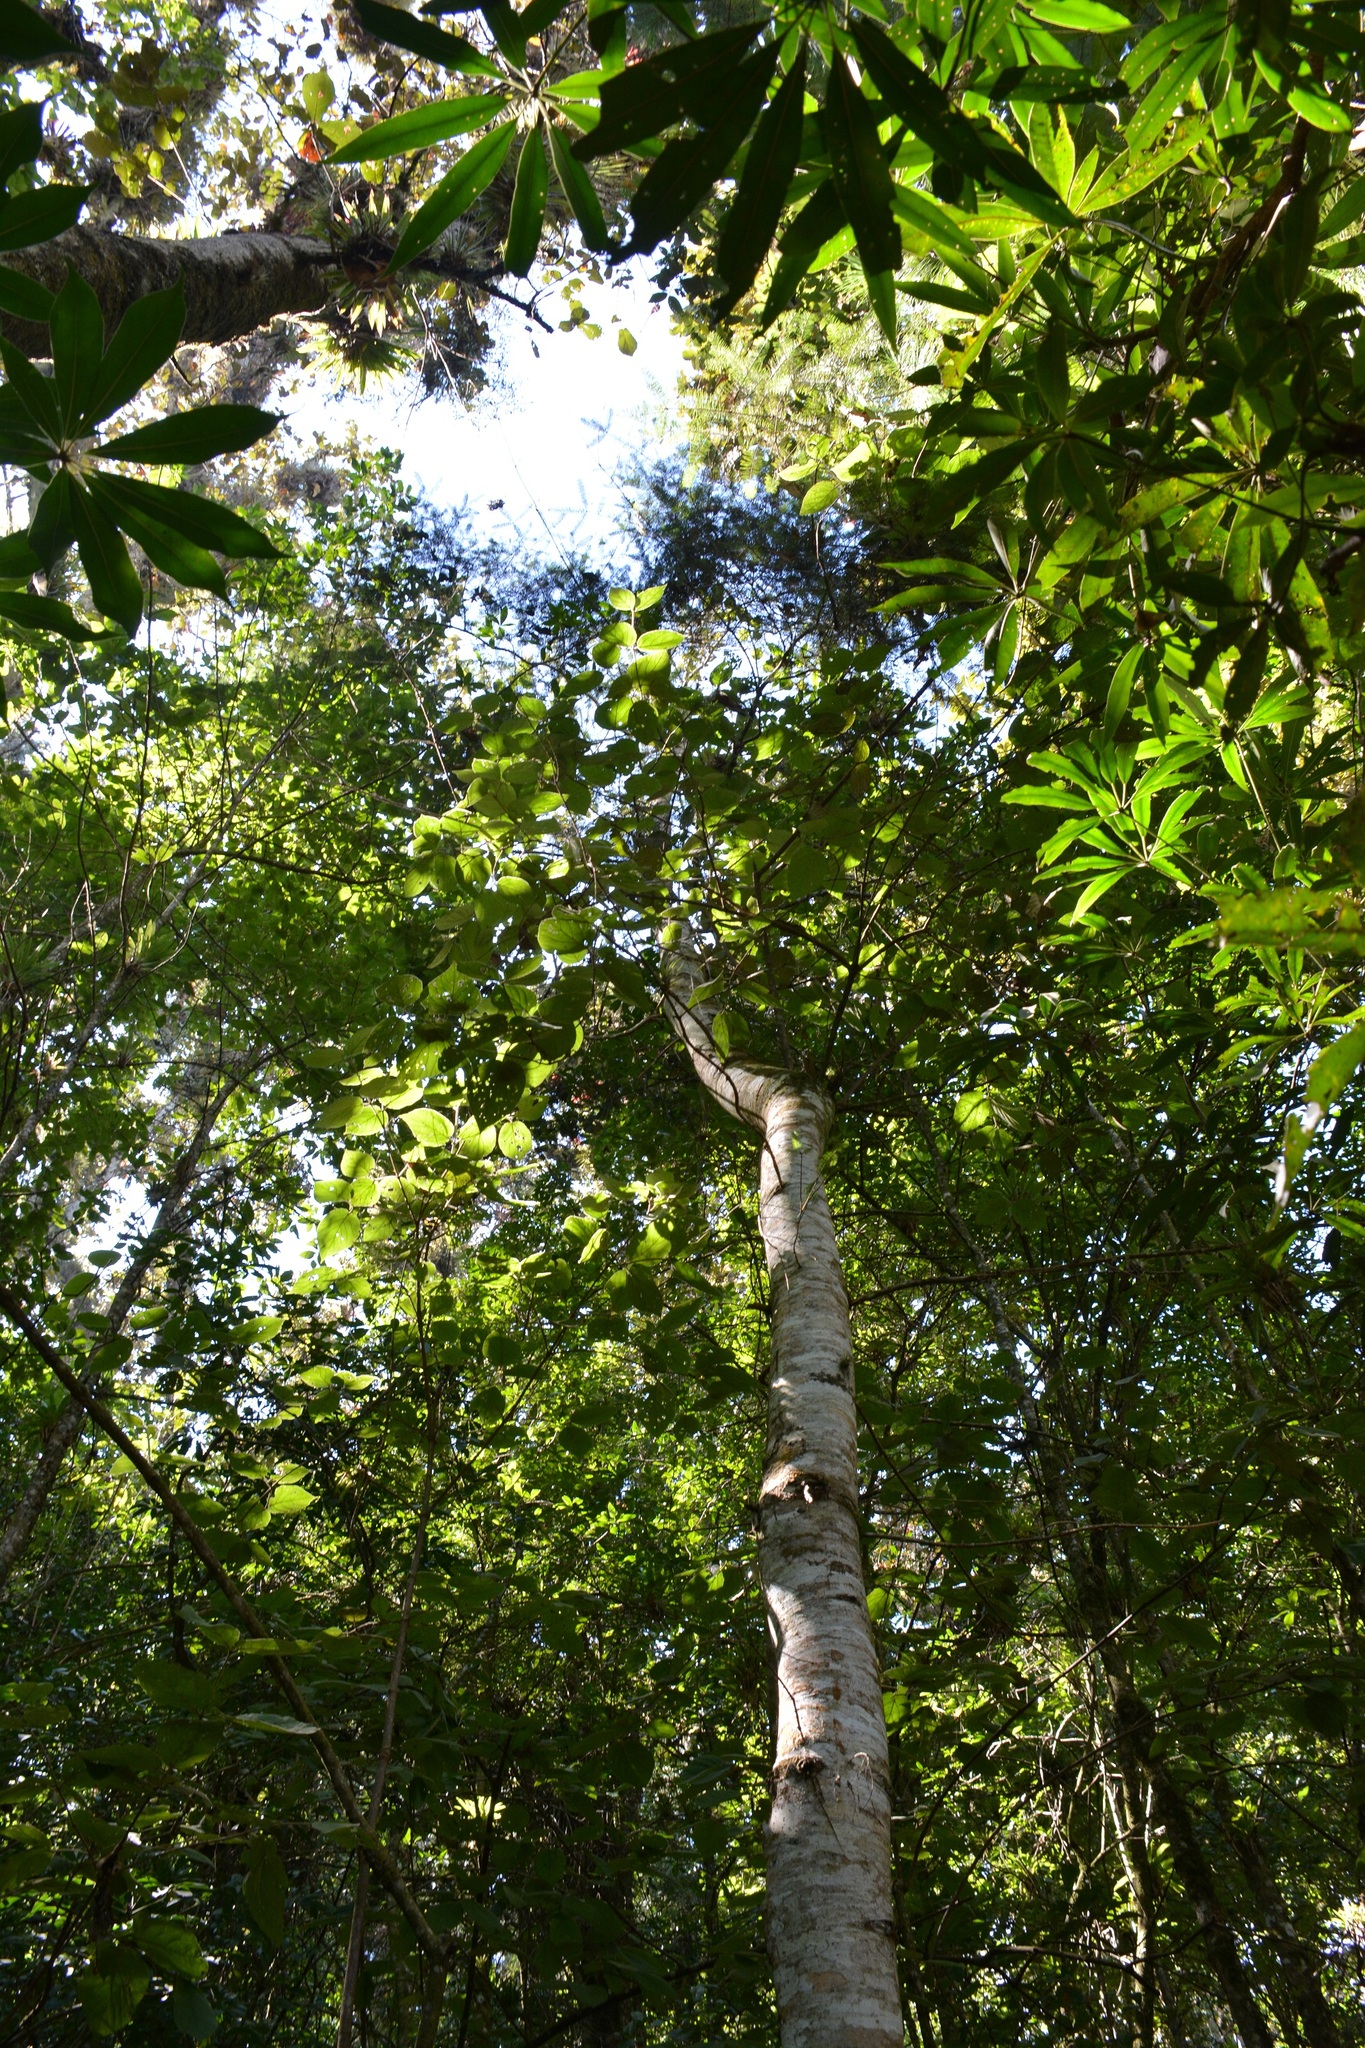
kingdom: Plantae
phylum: Tracheophyta
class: Pinopsida
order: Pinales
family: Pinaceae
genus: Abies
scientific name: Abies guatemalensis
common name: Guatemalan fir
